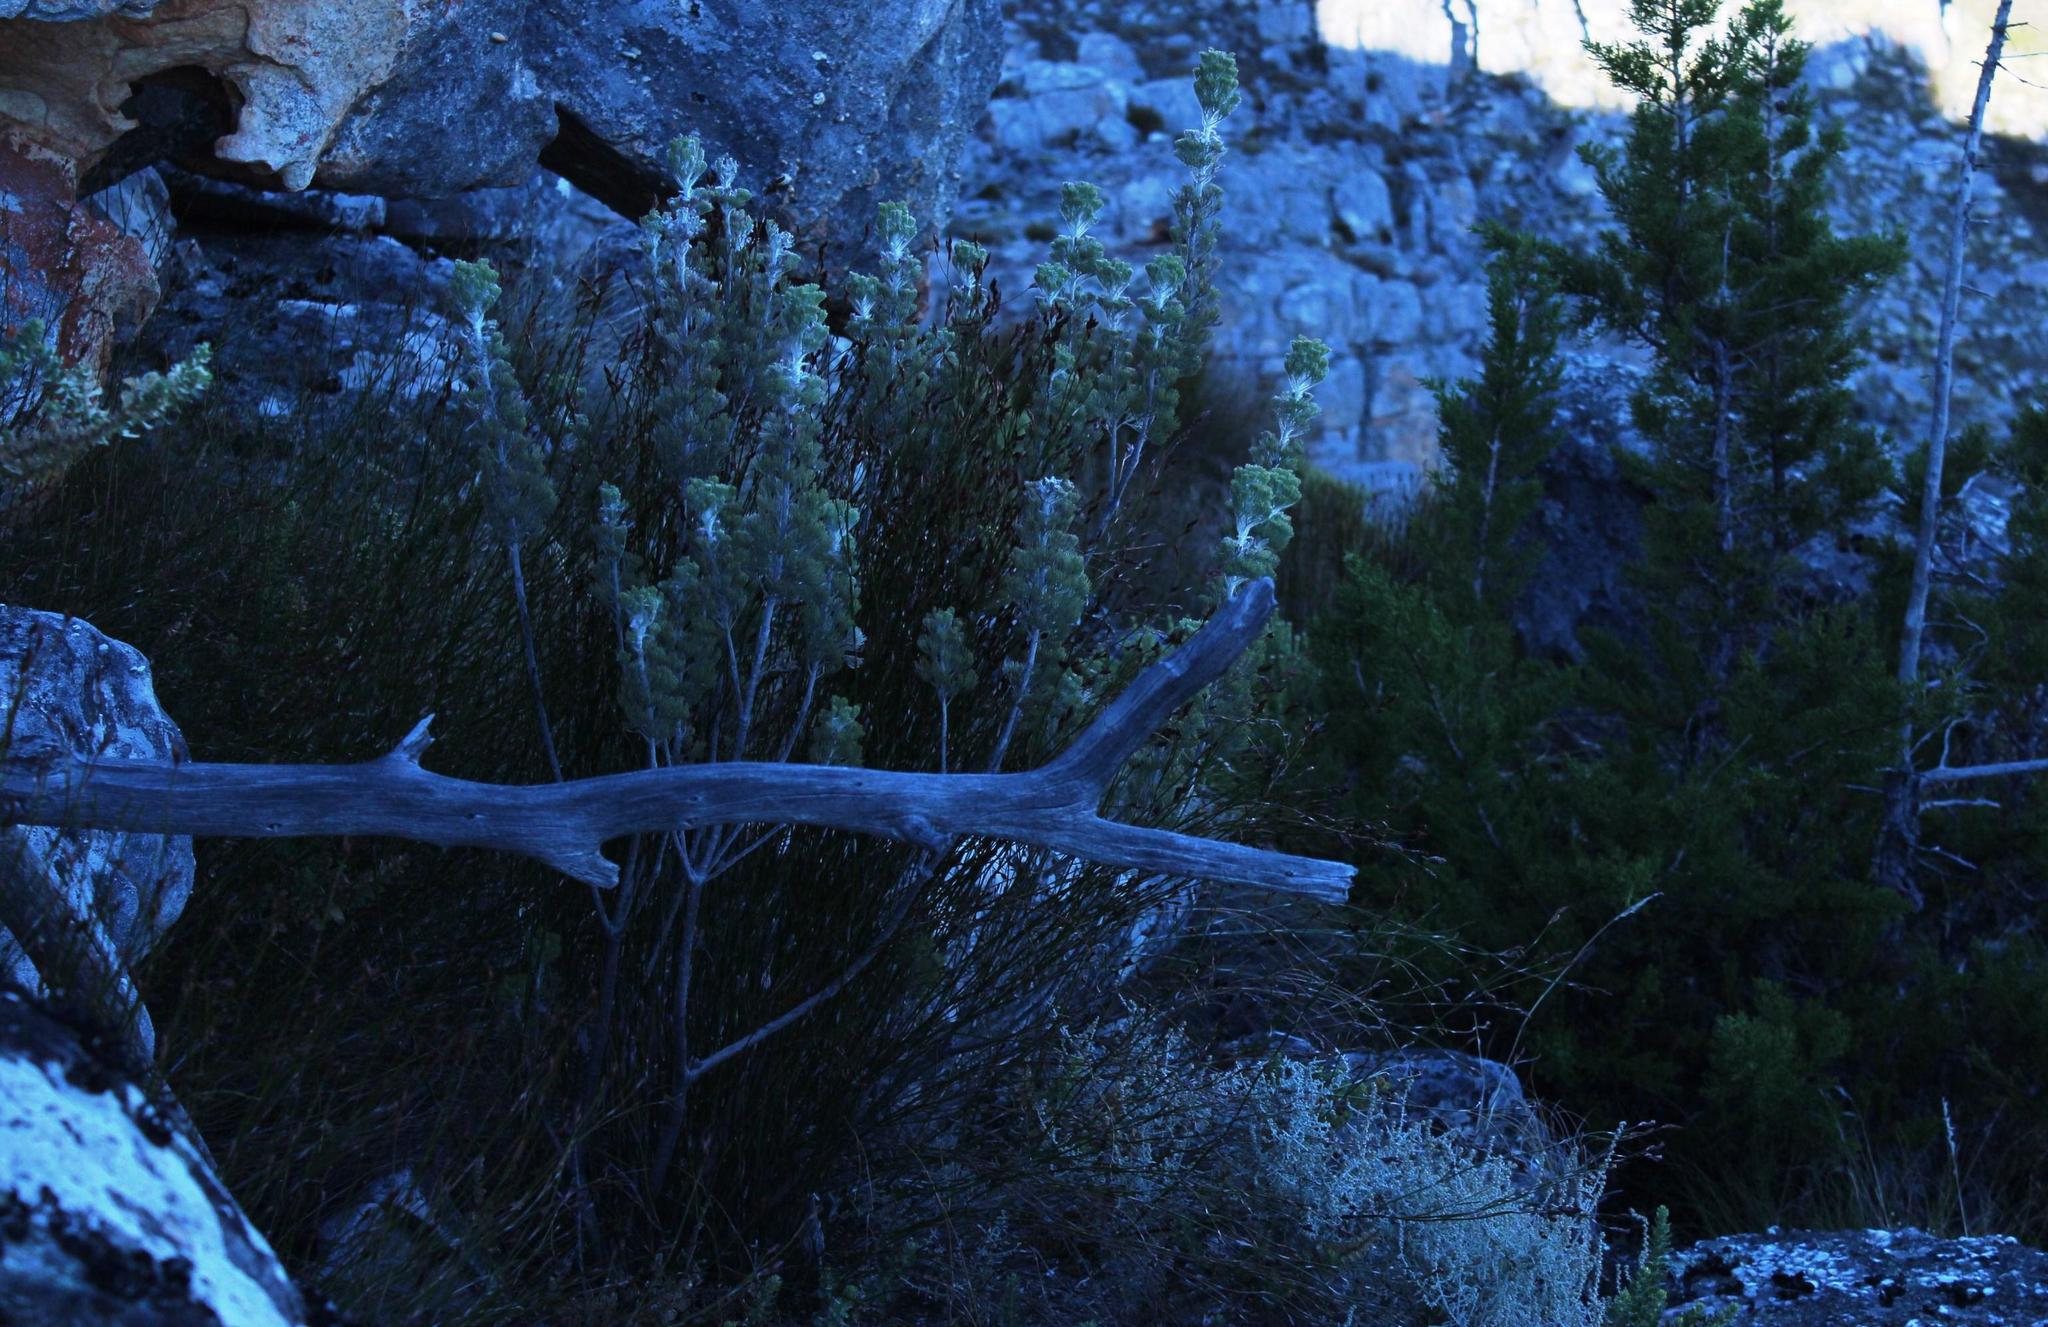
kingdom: Plantae
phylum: Tracheophyta
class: Magnoliopsida
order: Proteales
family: Proteaceae
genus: Paranomus
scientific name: Paranomus tomentosus
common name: Hairy-leaf tree sceptre
